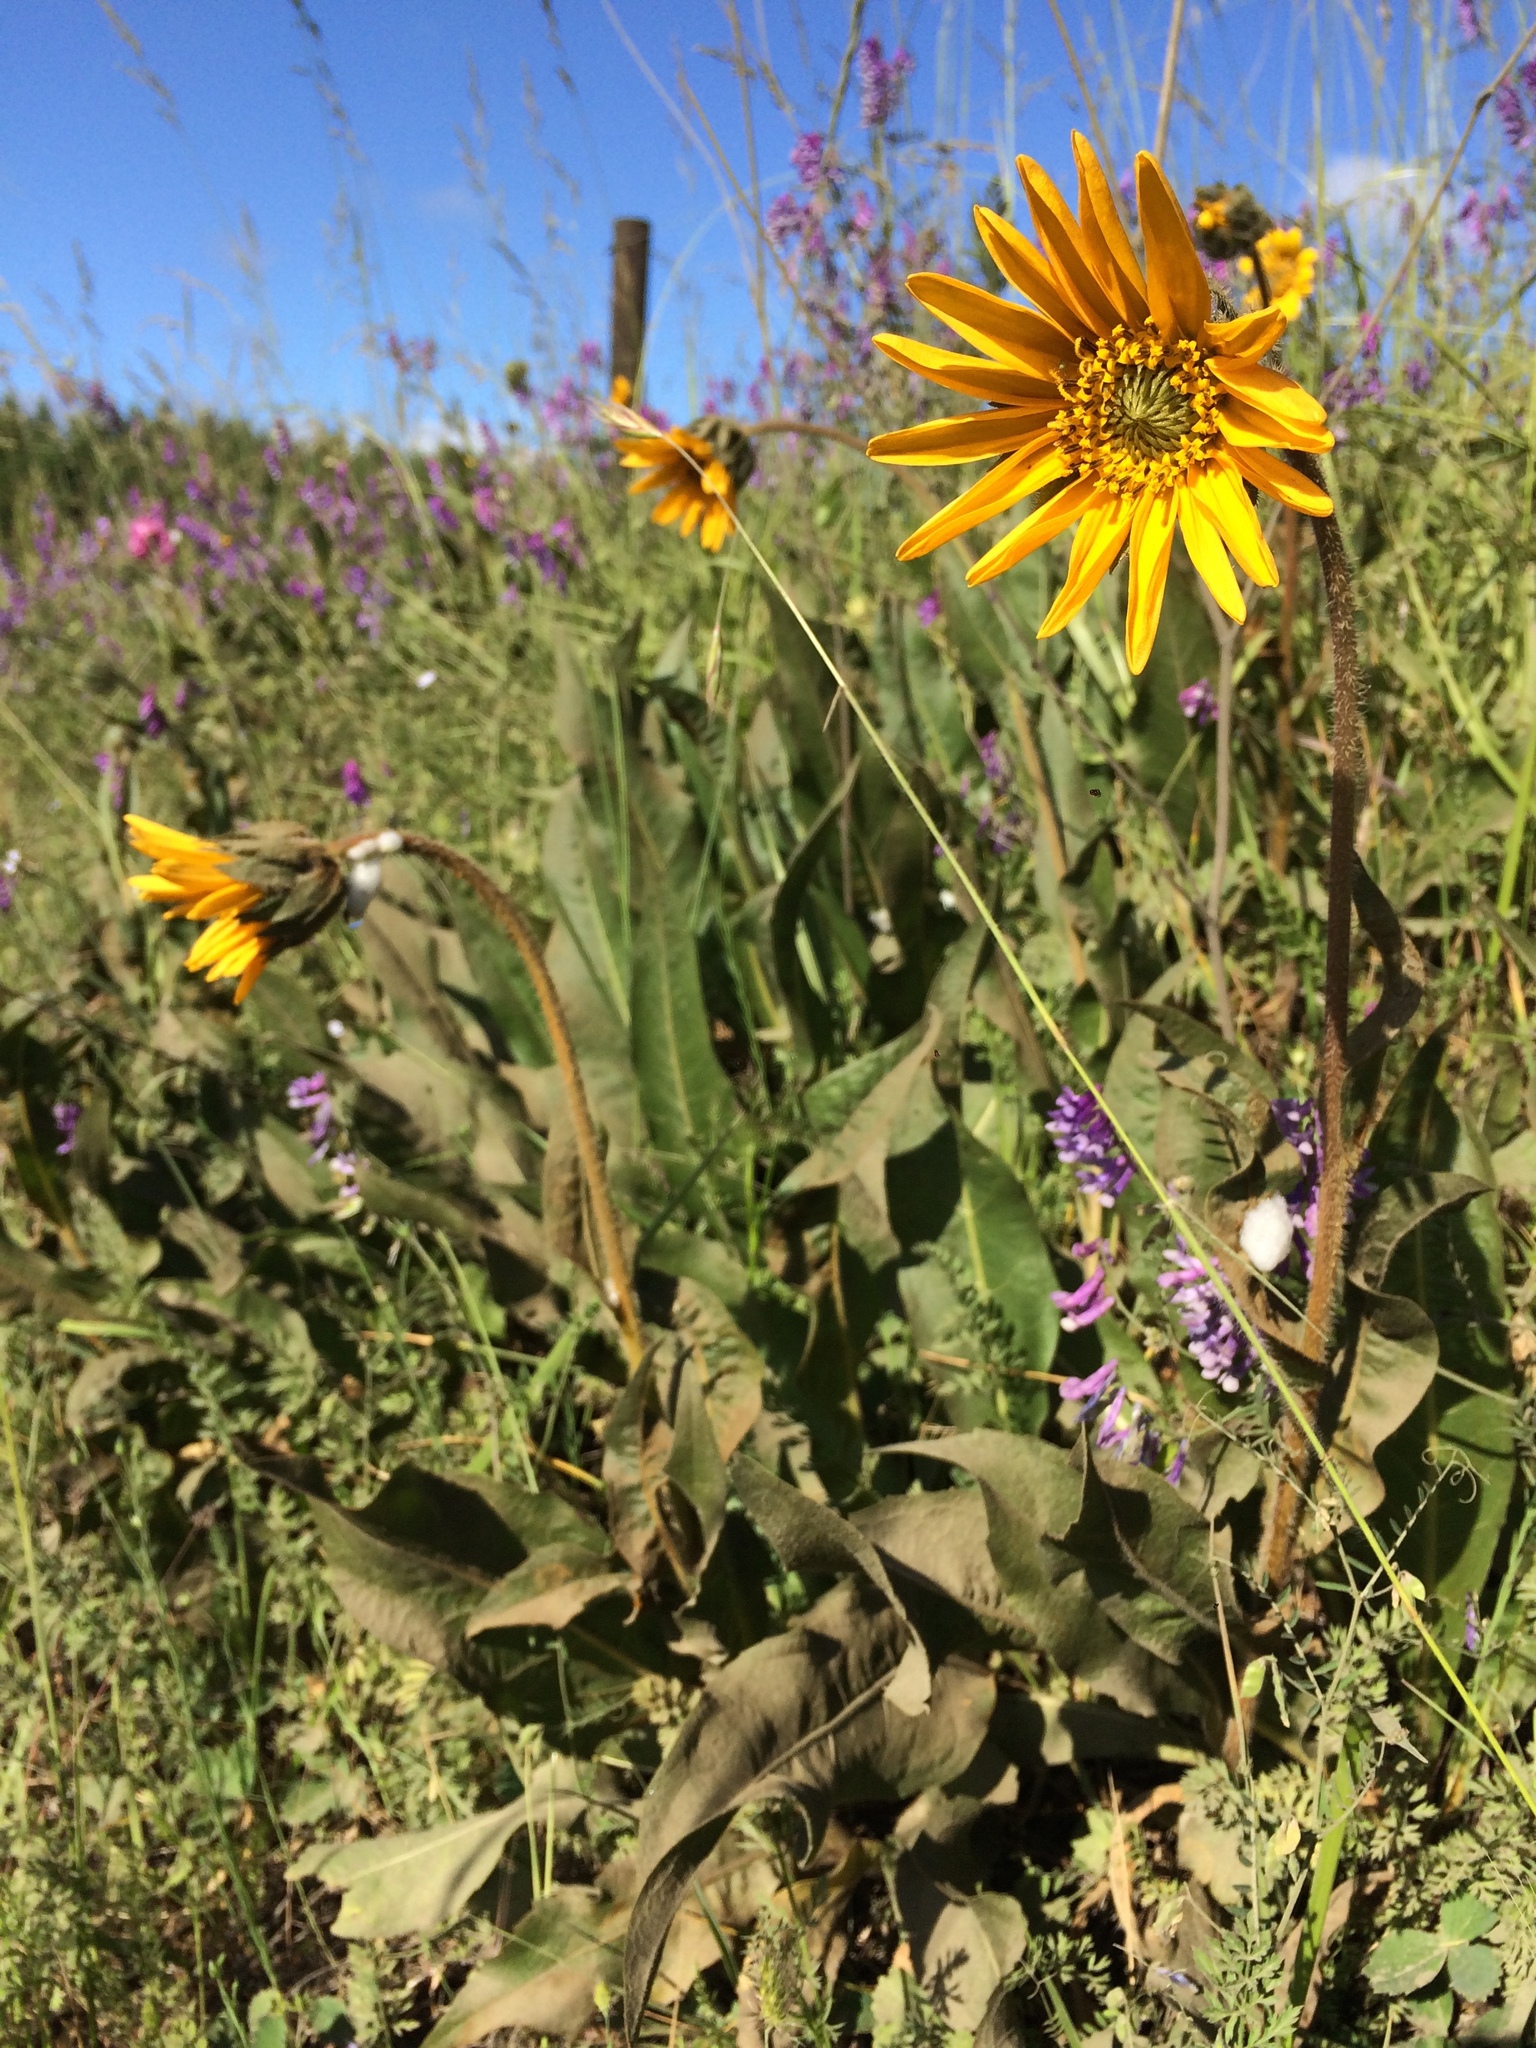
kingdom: Plantae
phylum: Tracheophyta
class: Magnoliopsida
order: Asterales
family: Asteraceae
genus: Wyethia
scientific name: Wyethia angustifolia
